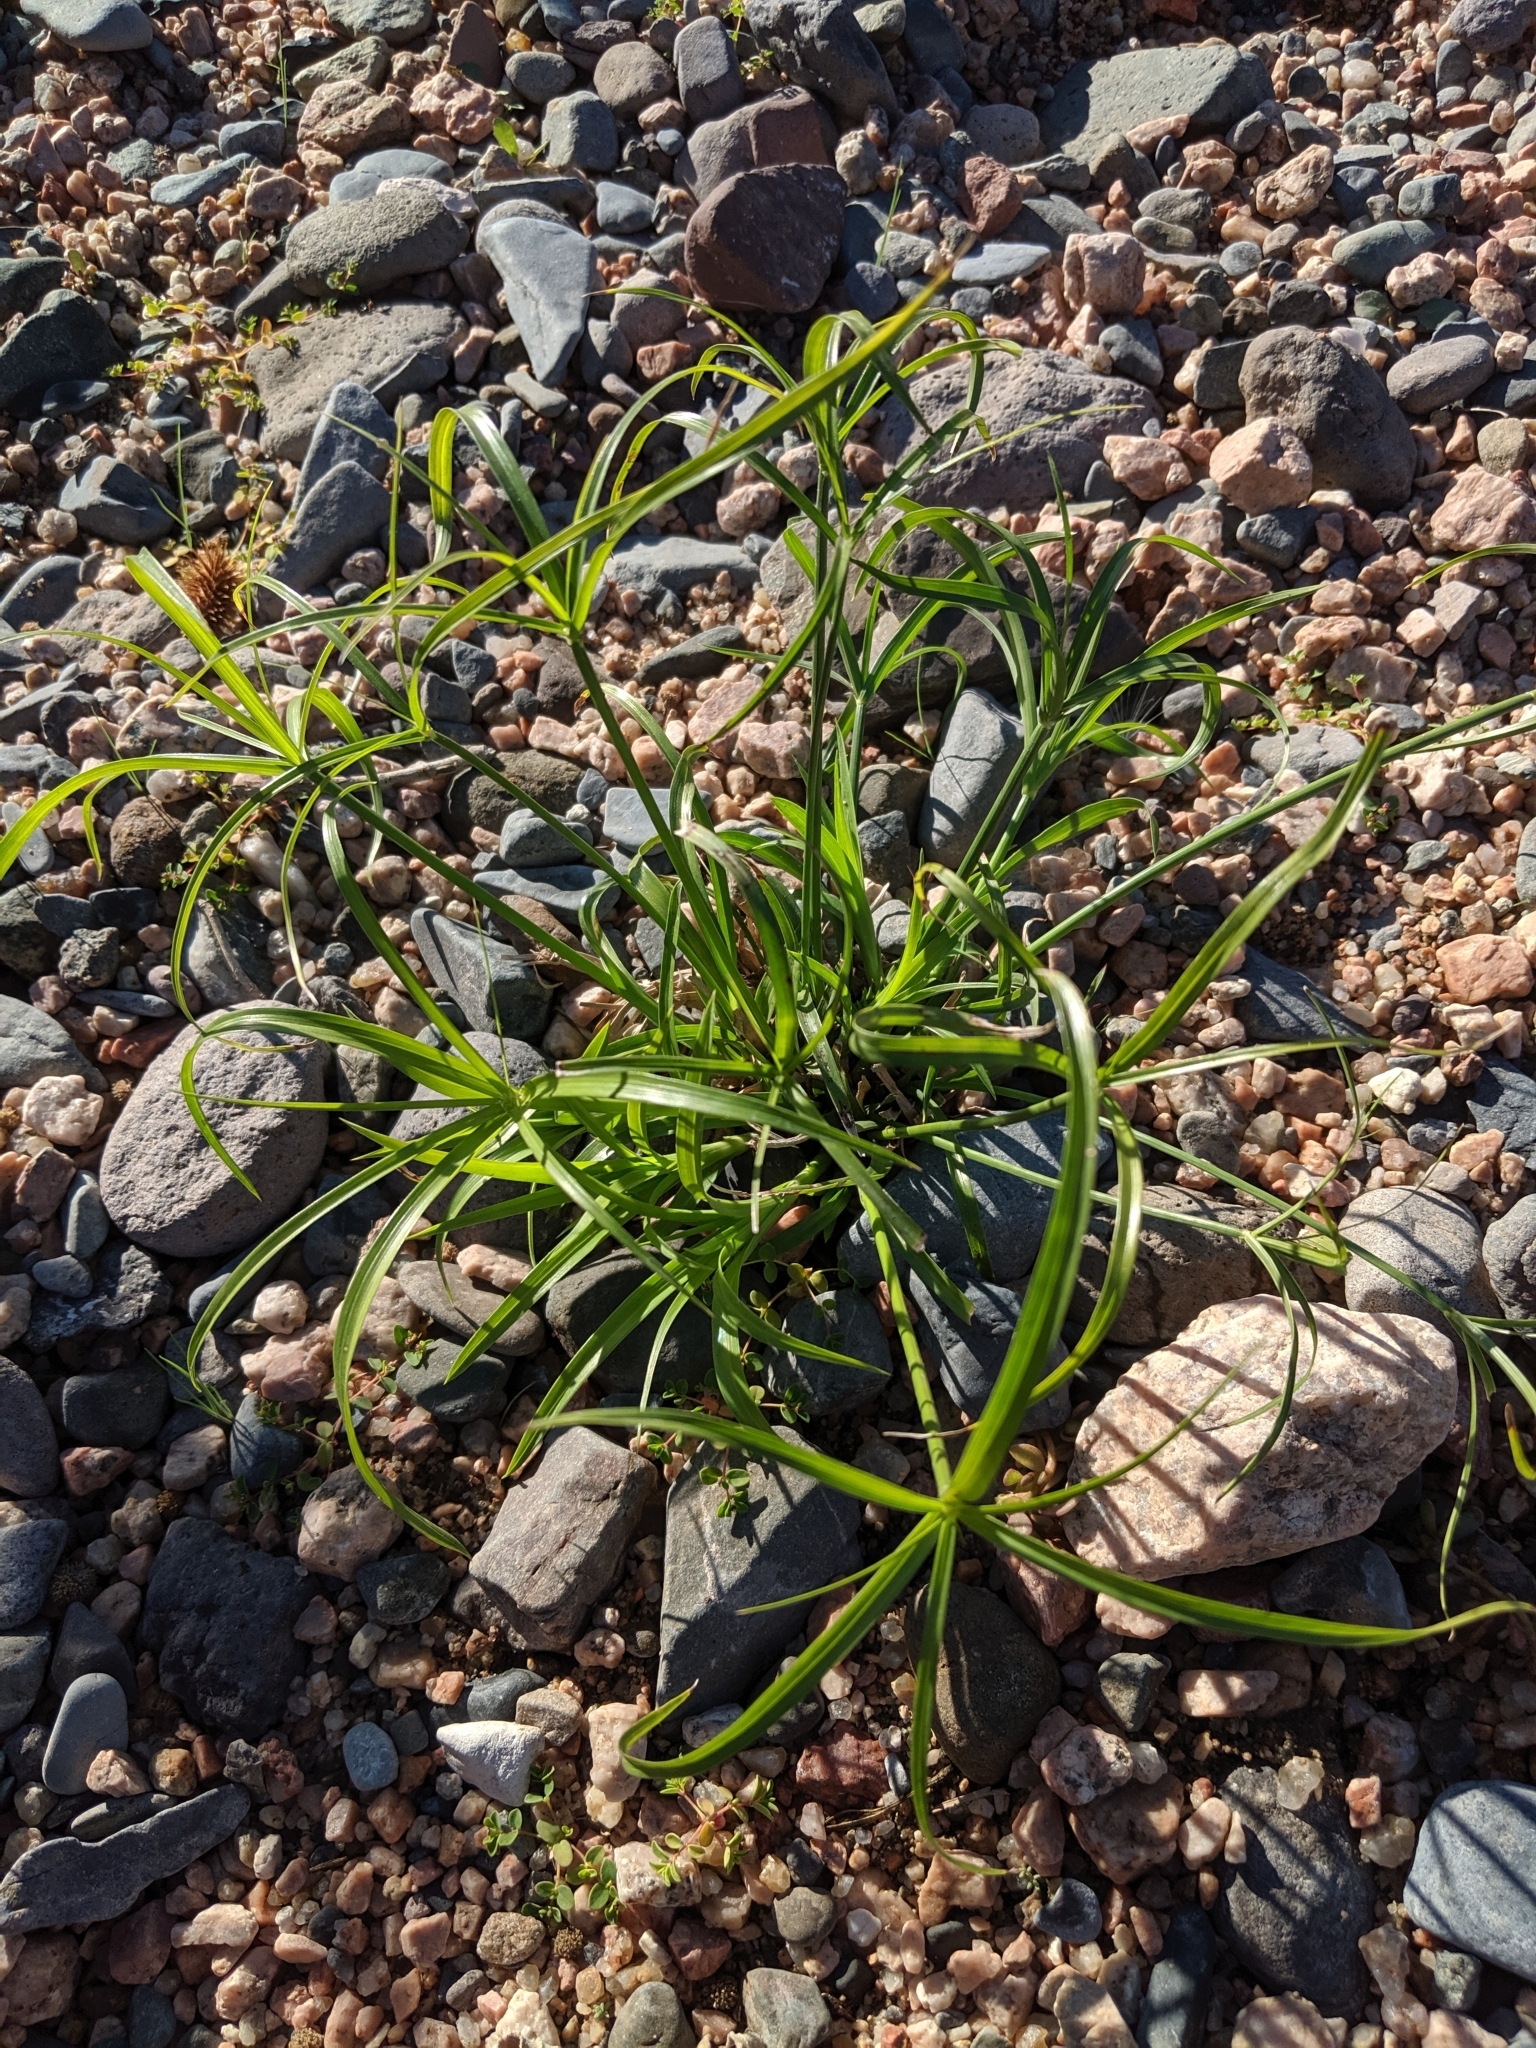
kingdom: Plantae
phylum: Tracheophyta
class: Liliopsida
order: Poales
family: Cyperaceae
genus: Cyperus
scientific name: Cyperus
